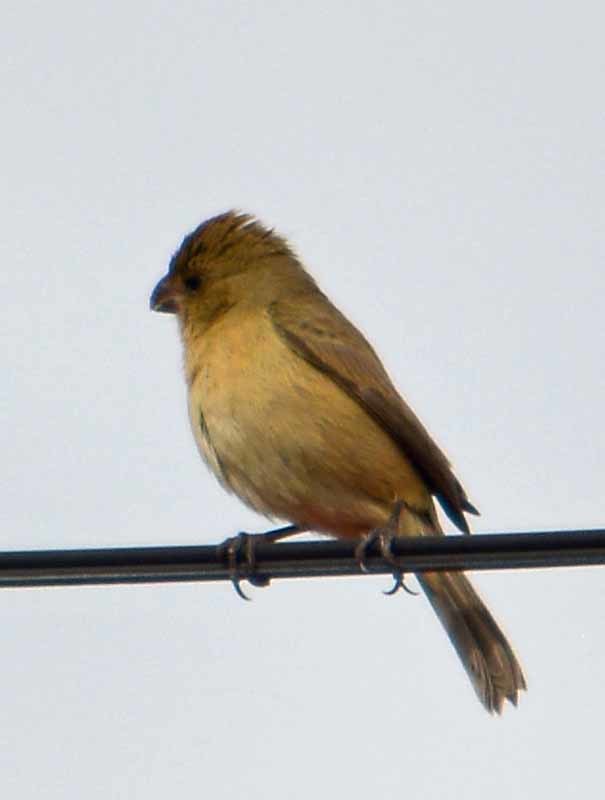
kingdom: Animalia
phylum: Chordata
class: Aves
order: Passeriformes
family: Thraupidae
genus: Sporophila
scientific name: Sporophila torqueola
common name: White-collared seedeater
